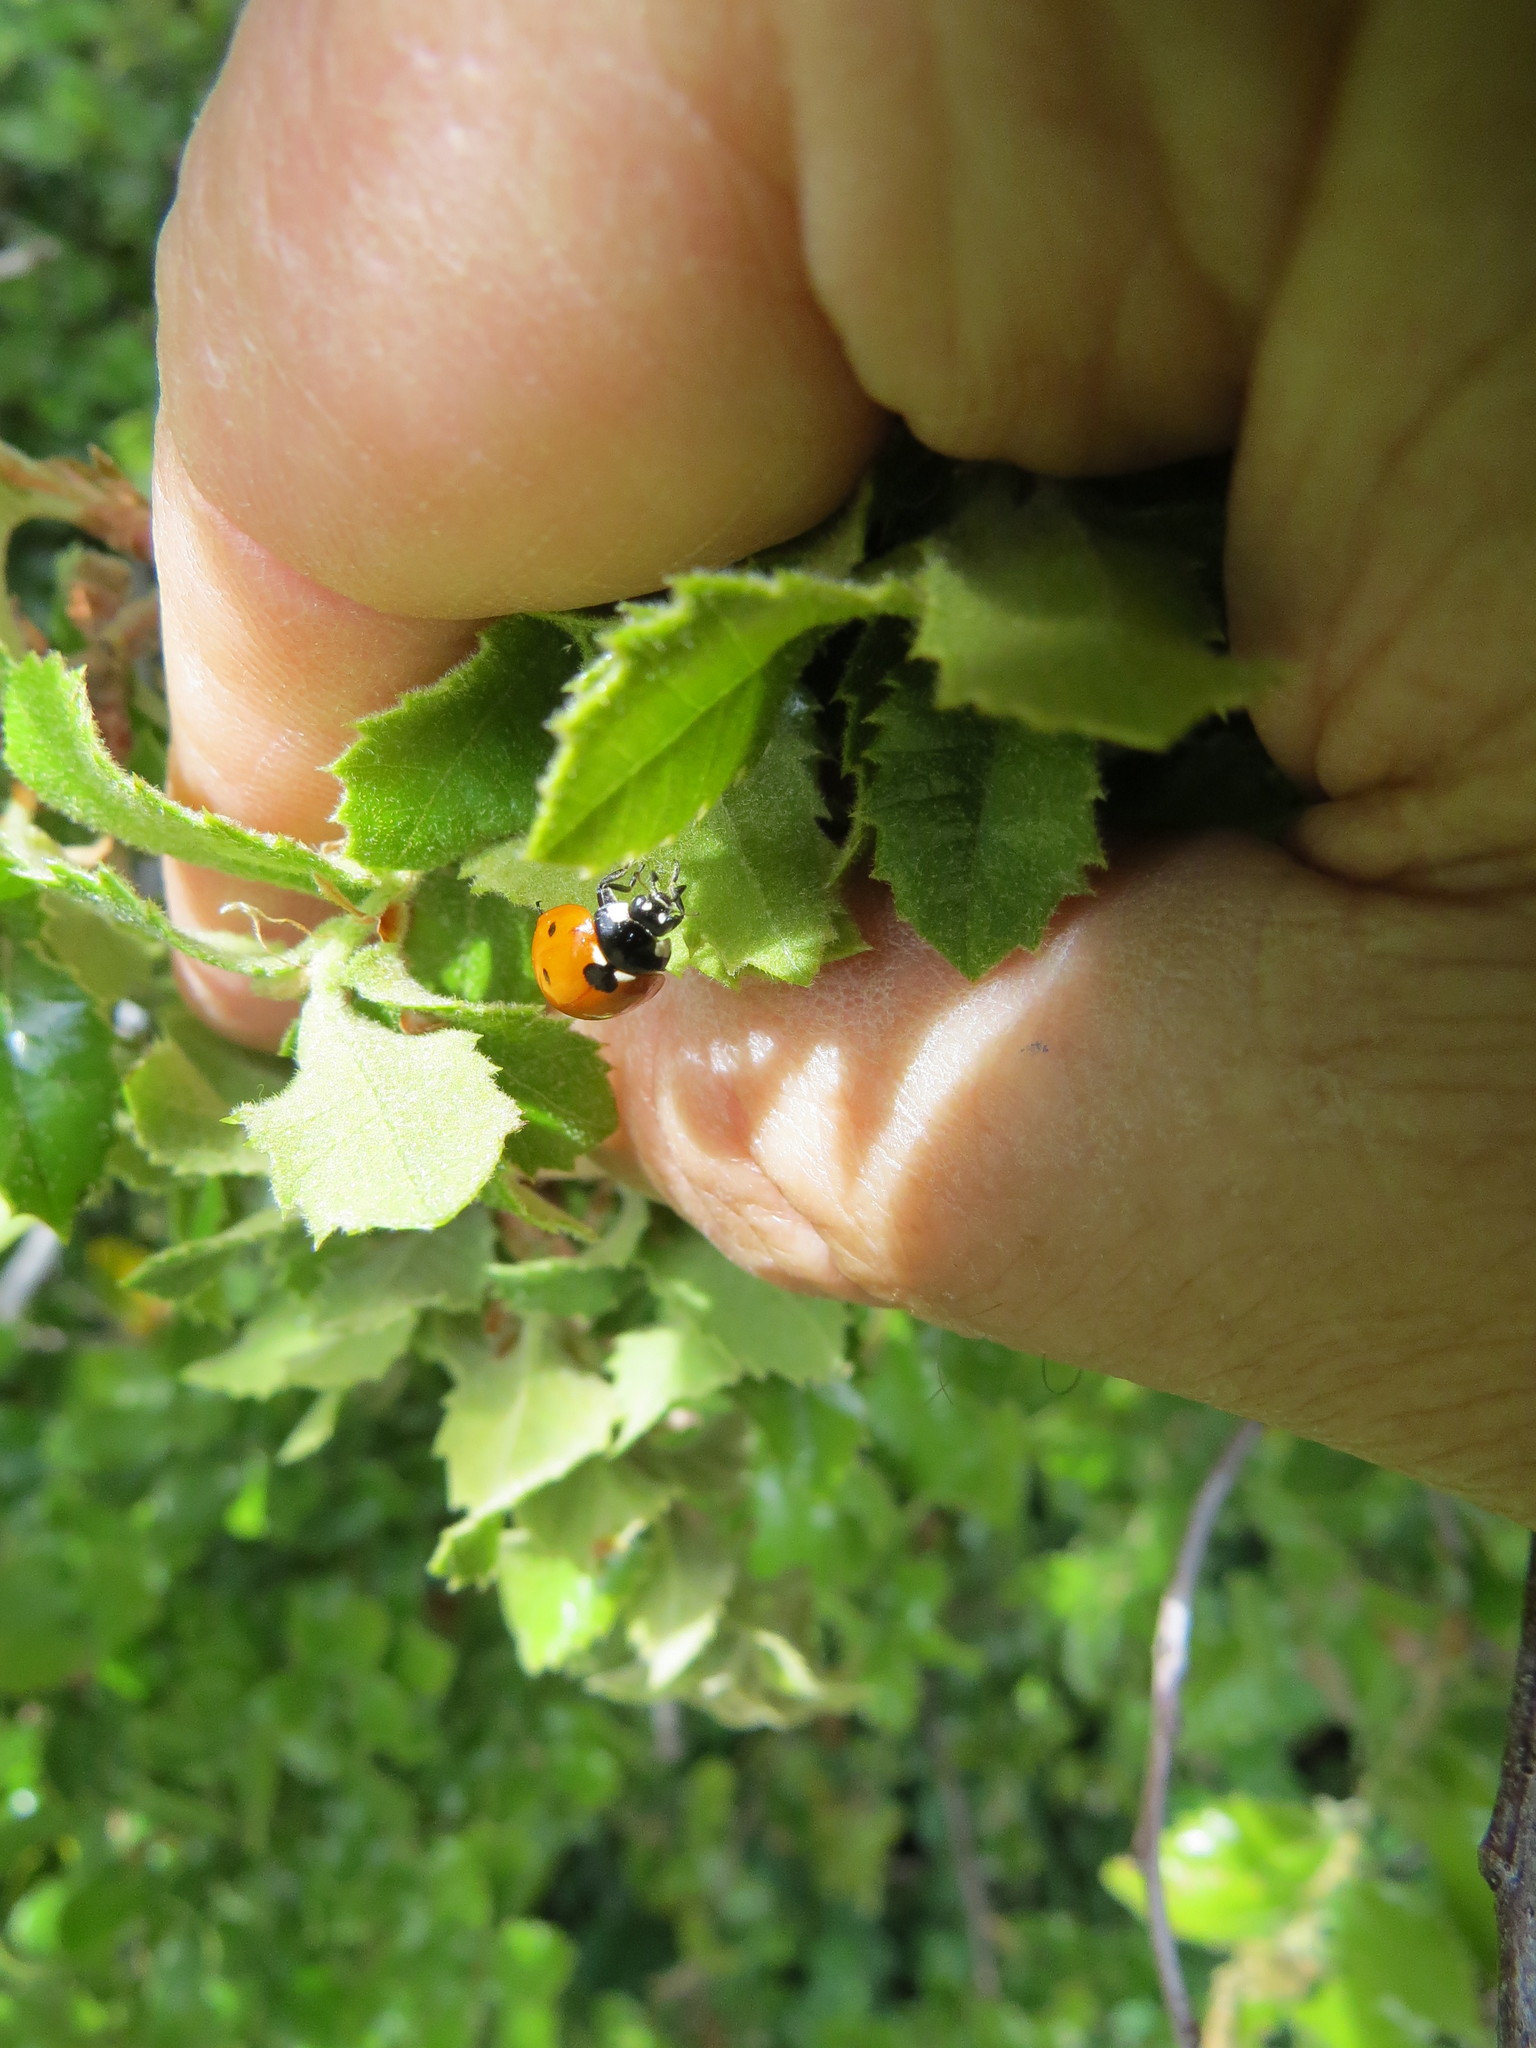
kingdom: Animalia
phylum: Arthropoda
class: Insecta
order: Coleoptera
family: Coccinellidae
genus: Coccinella
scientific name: Coccinella septempunctata
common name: Sevenspotted lady beetle
